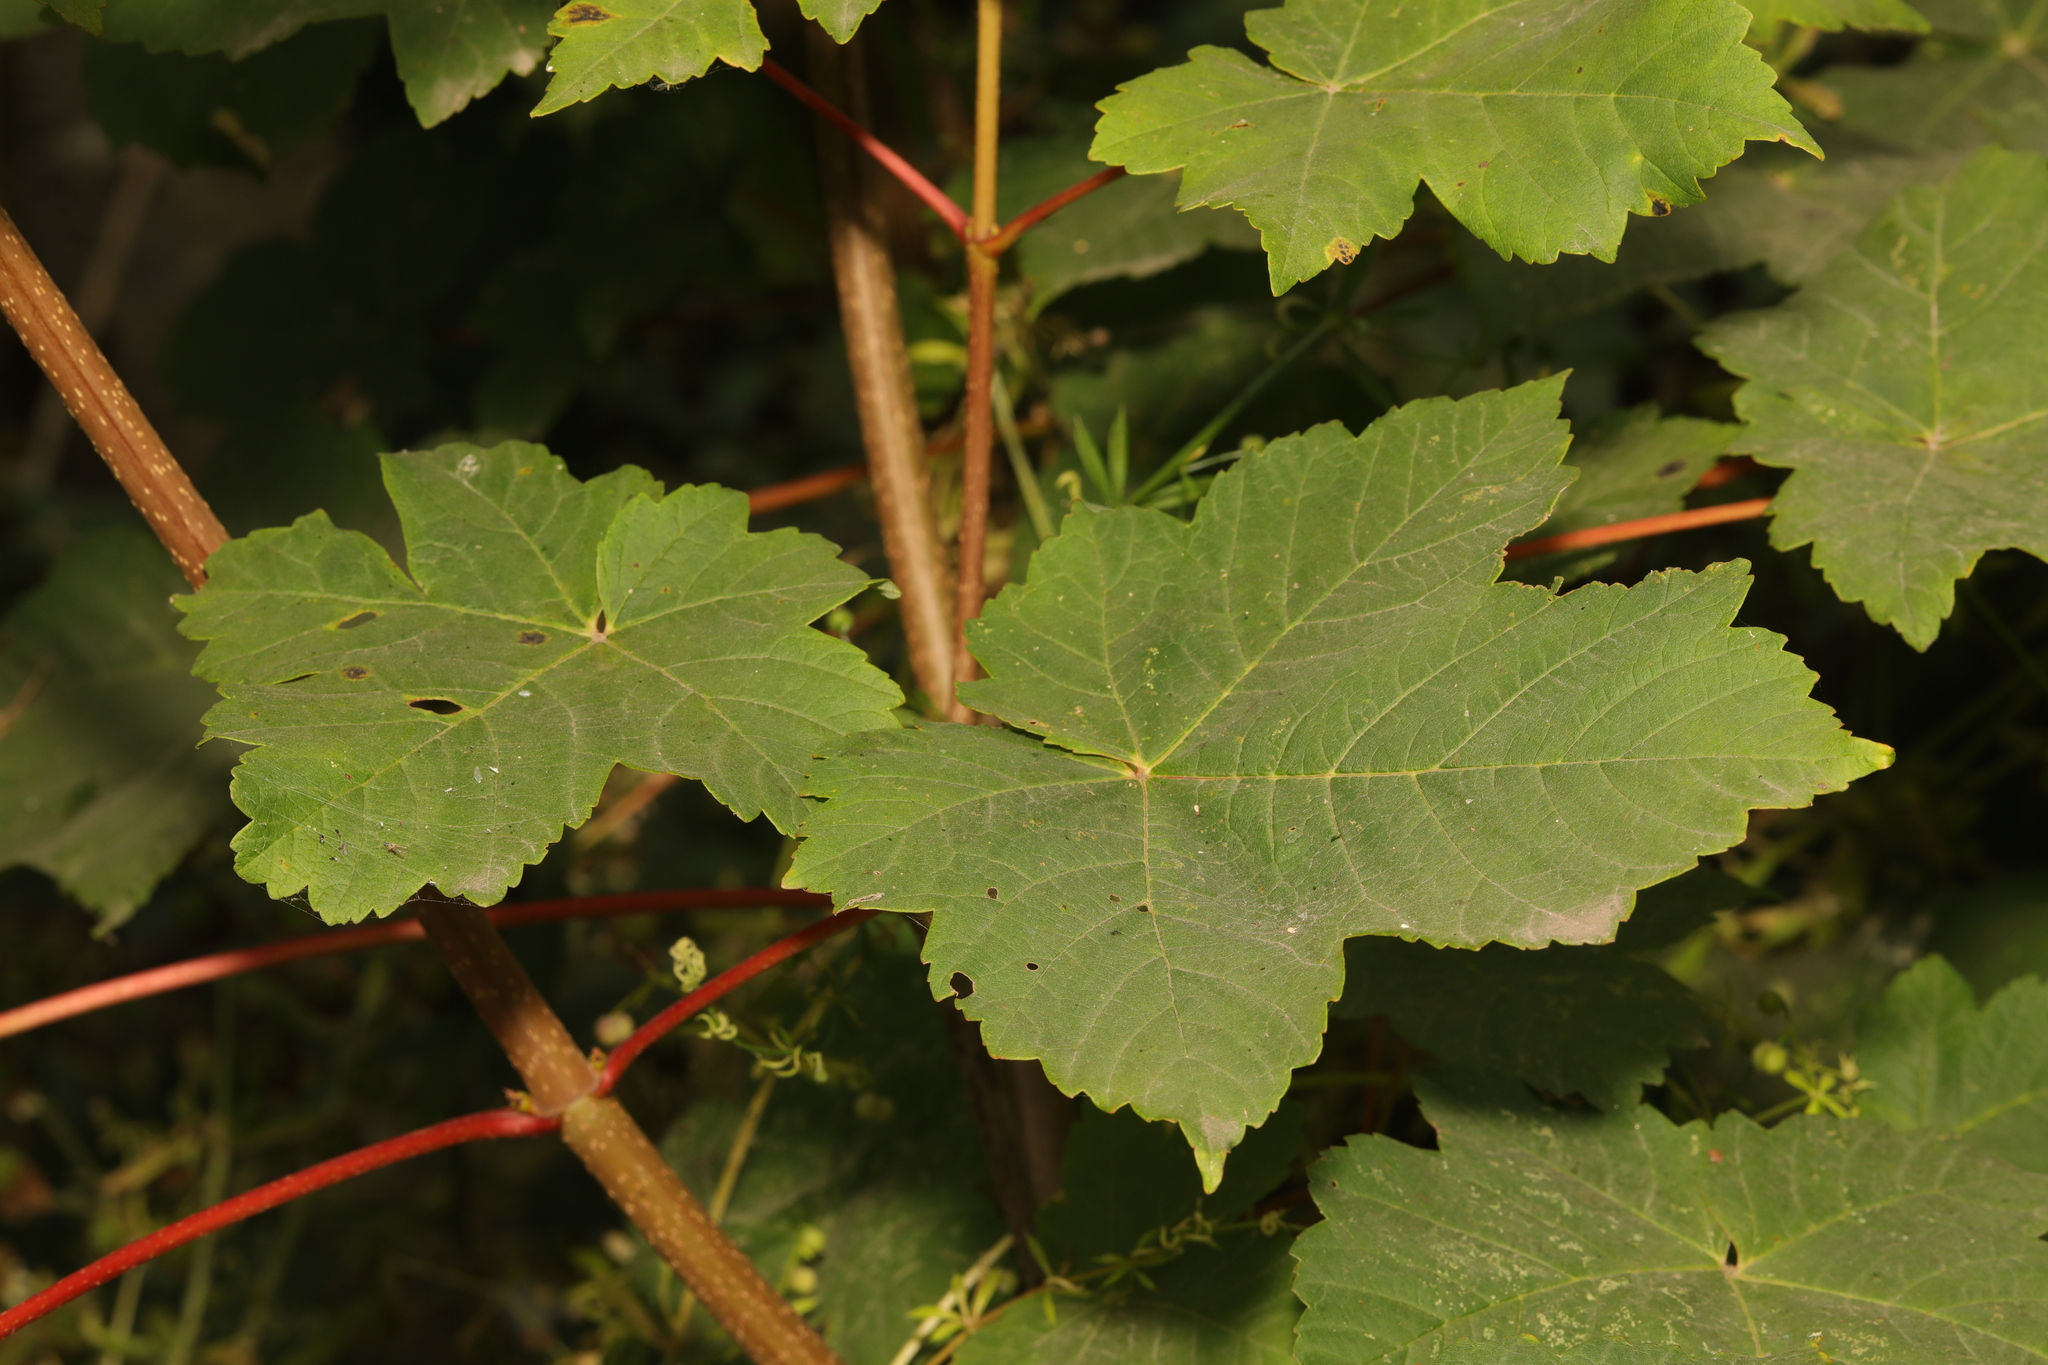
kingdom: Plantae
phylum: Tracheophyta
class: Magnoliopsida
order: Sapindales
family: Sapindaceae
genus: Acer
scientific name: Acer pseudoplatanus
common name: Sycamore
